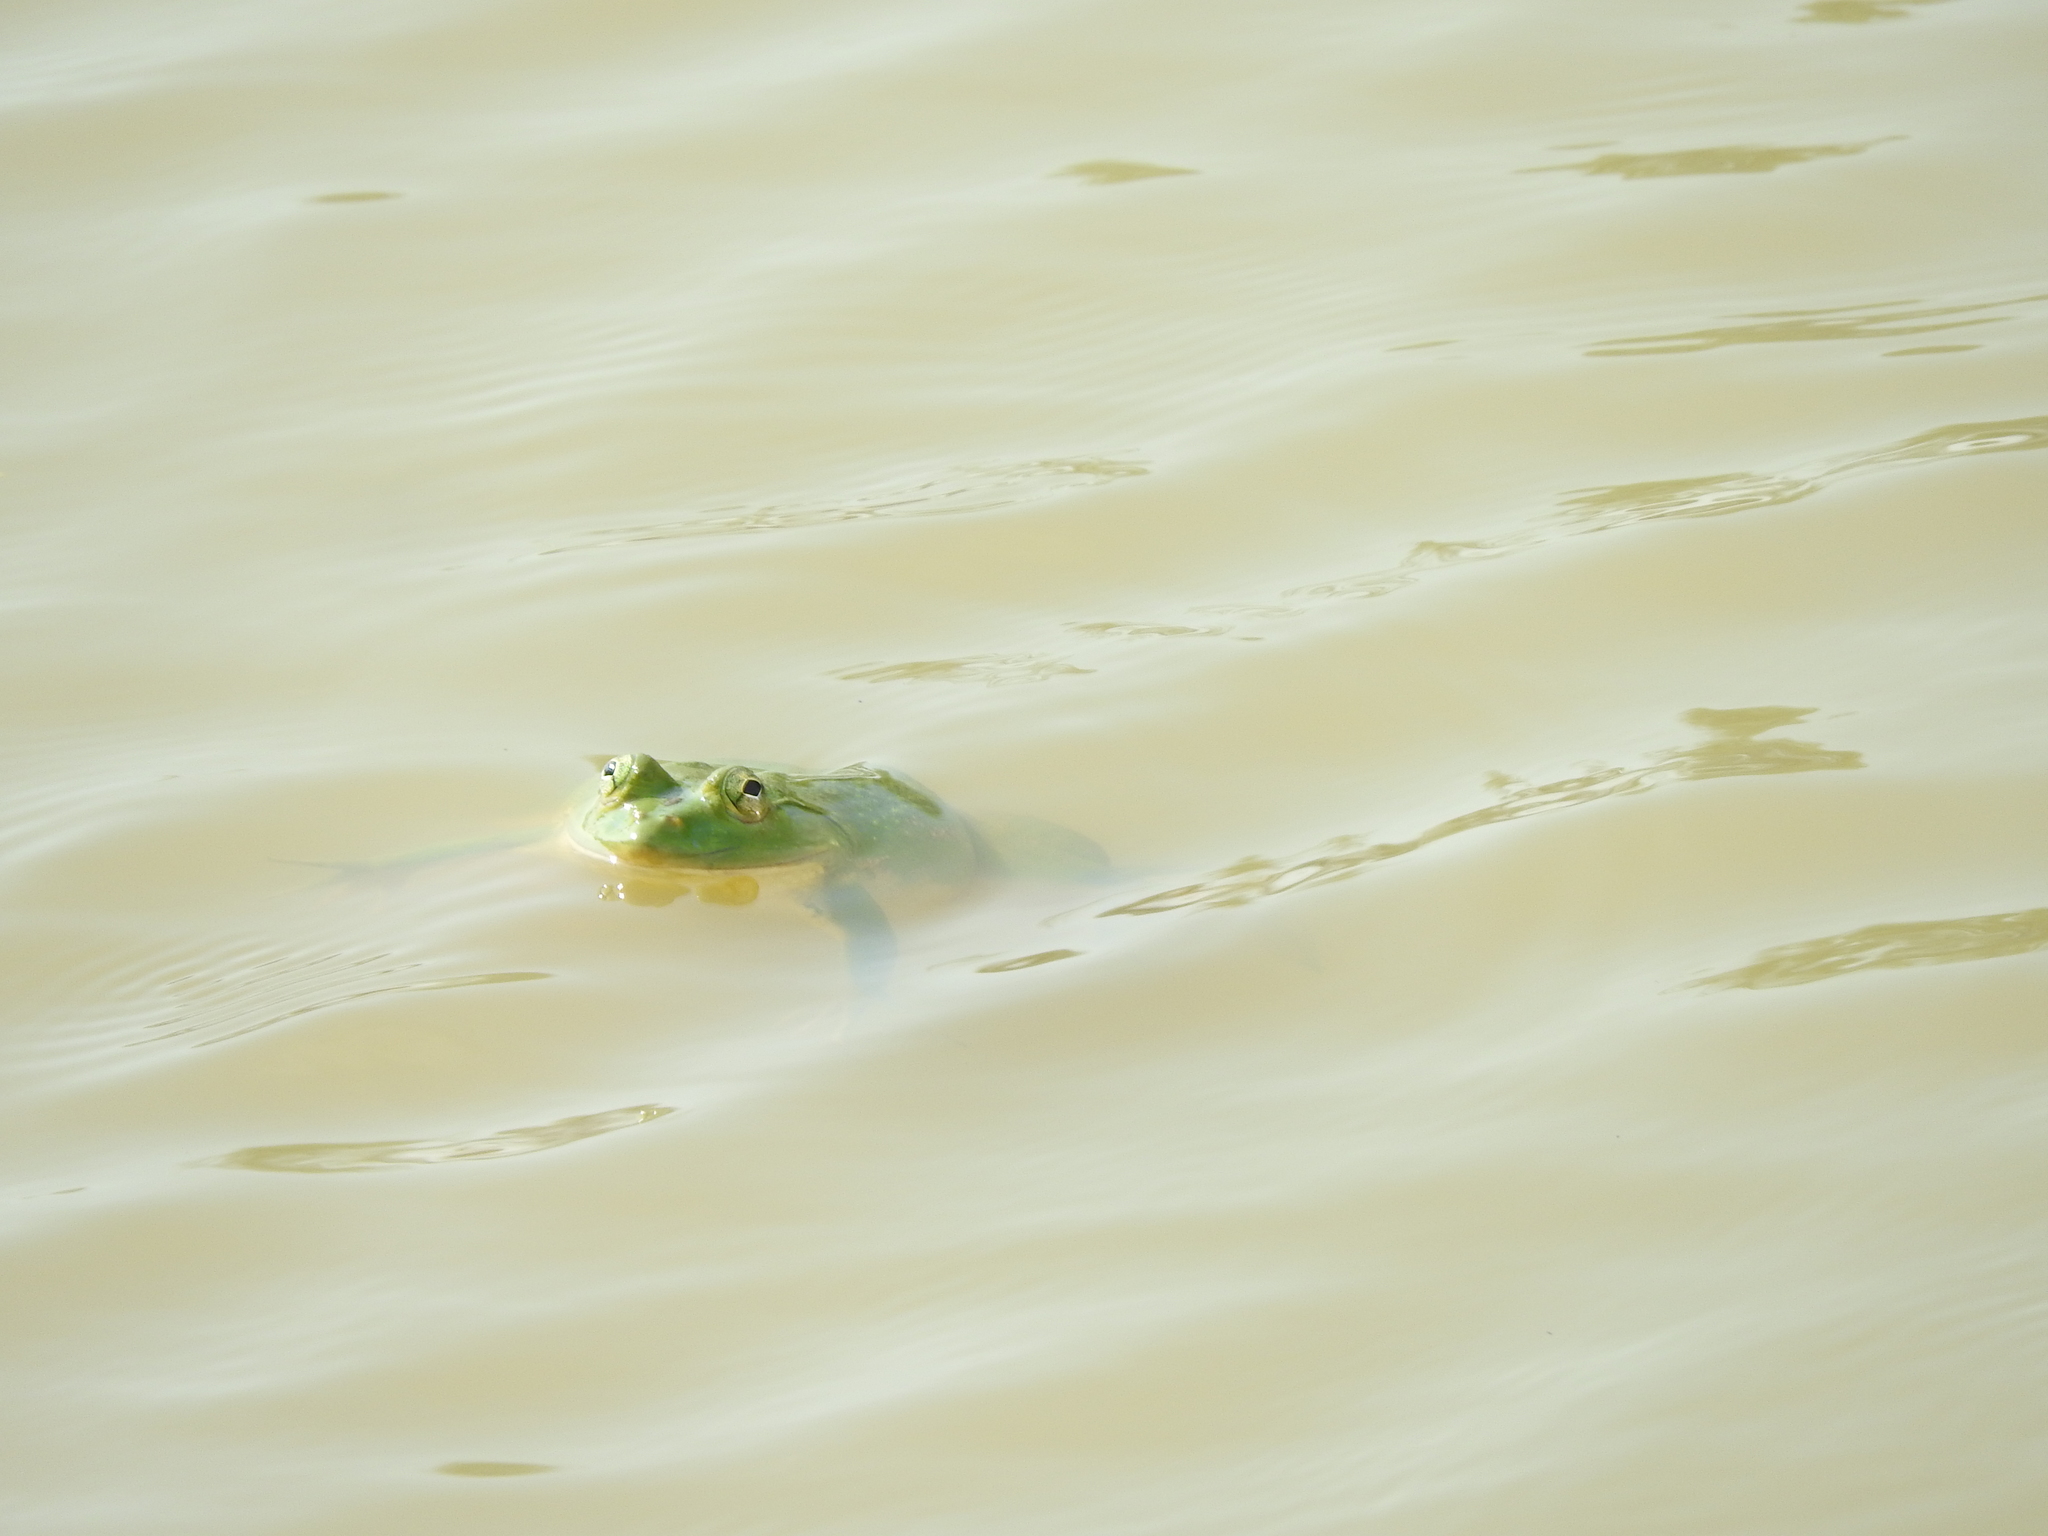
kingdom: Animalia
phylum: Chordata
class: Amphibia
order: Anura
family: Dicroglossidae
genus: Euphlyctis
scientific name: Euphlyctis hexadactylus
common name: Indian green frog
